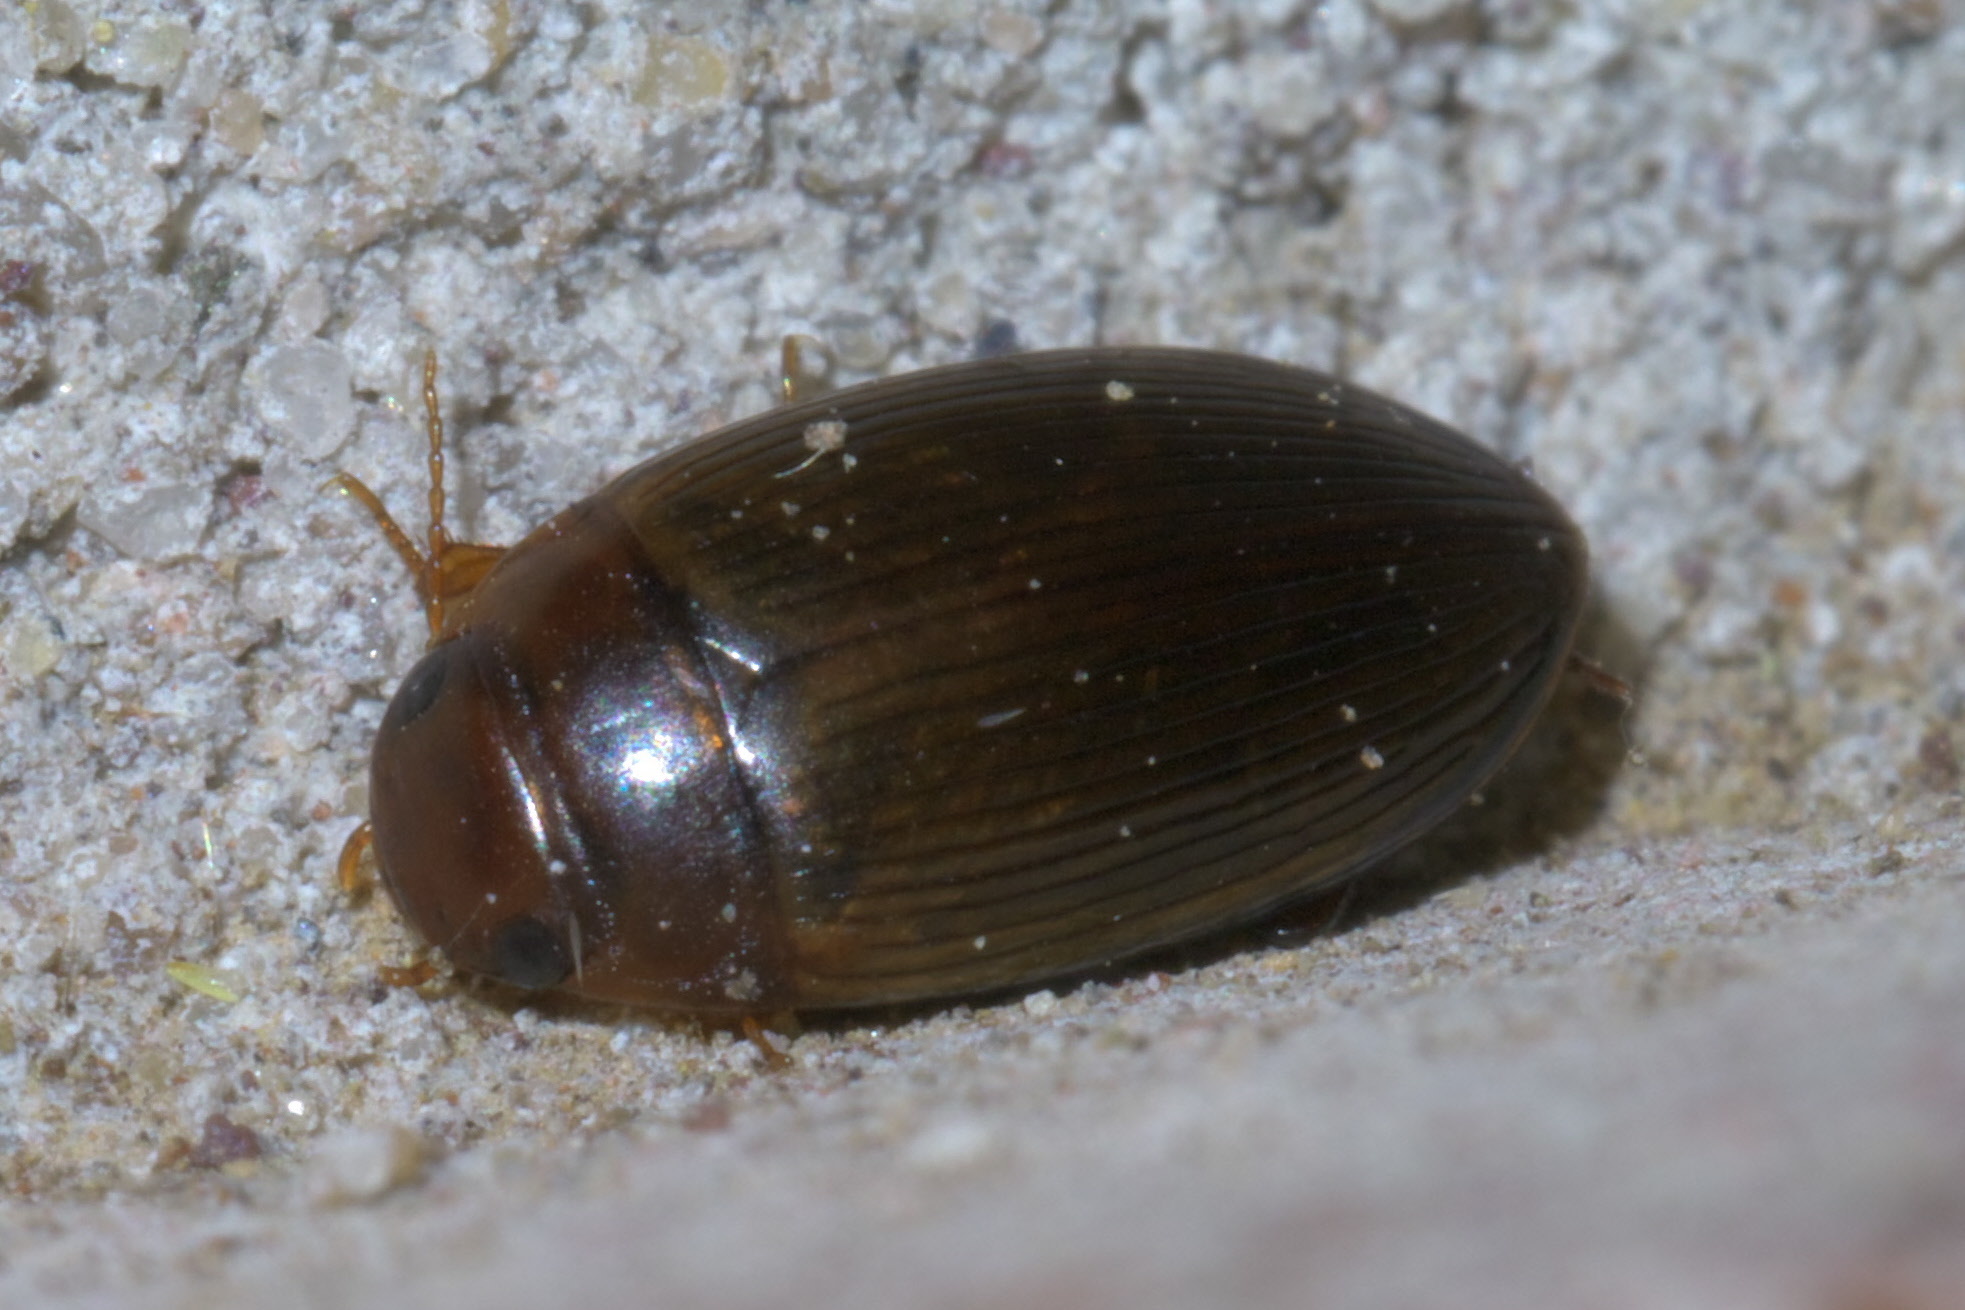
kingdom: Animalia
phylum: Arthropoda
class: Insecta
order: Coleoptera
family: Dytiscidae
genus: Copelatus
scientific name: Copelatus glyphicus
